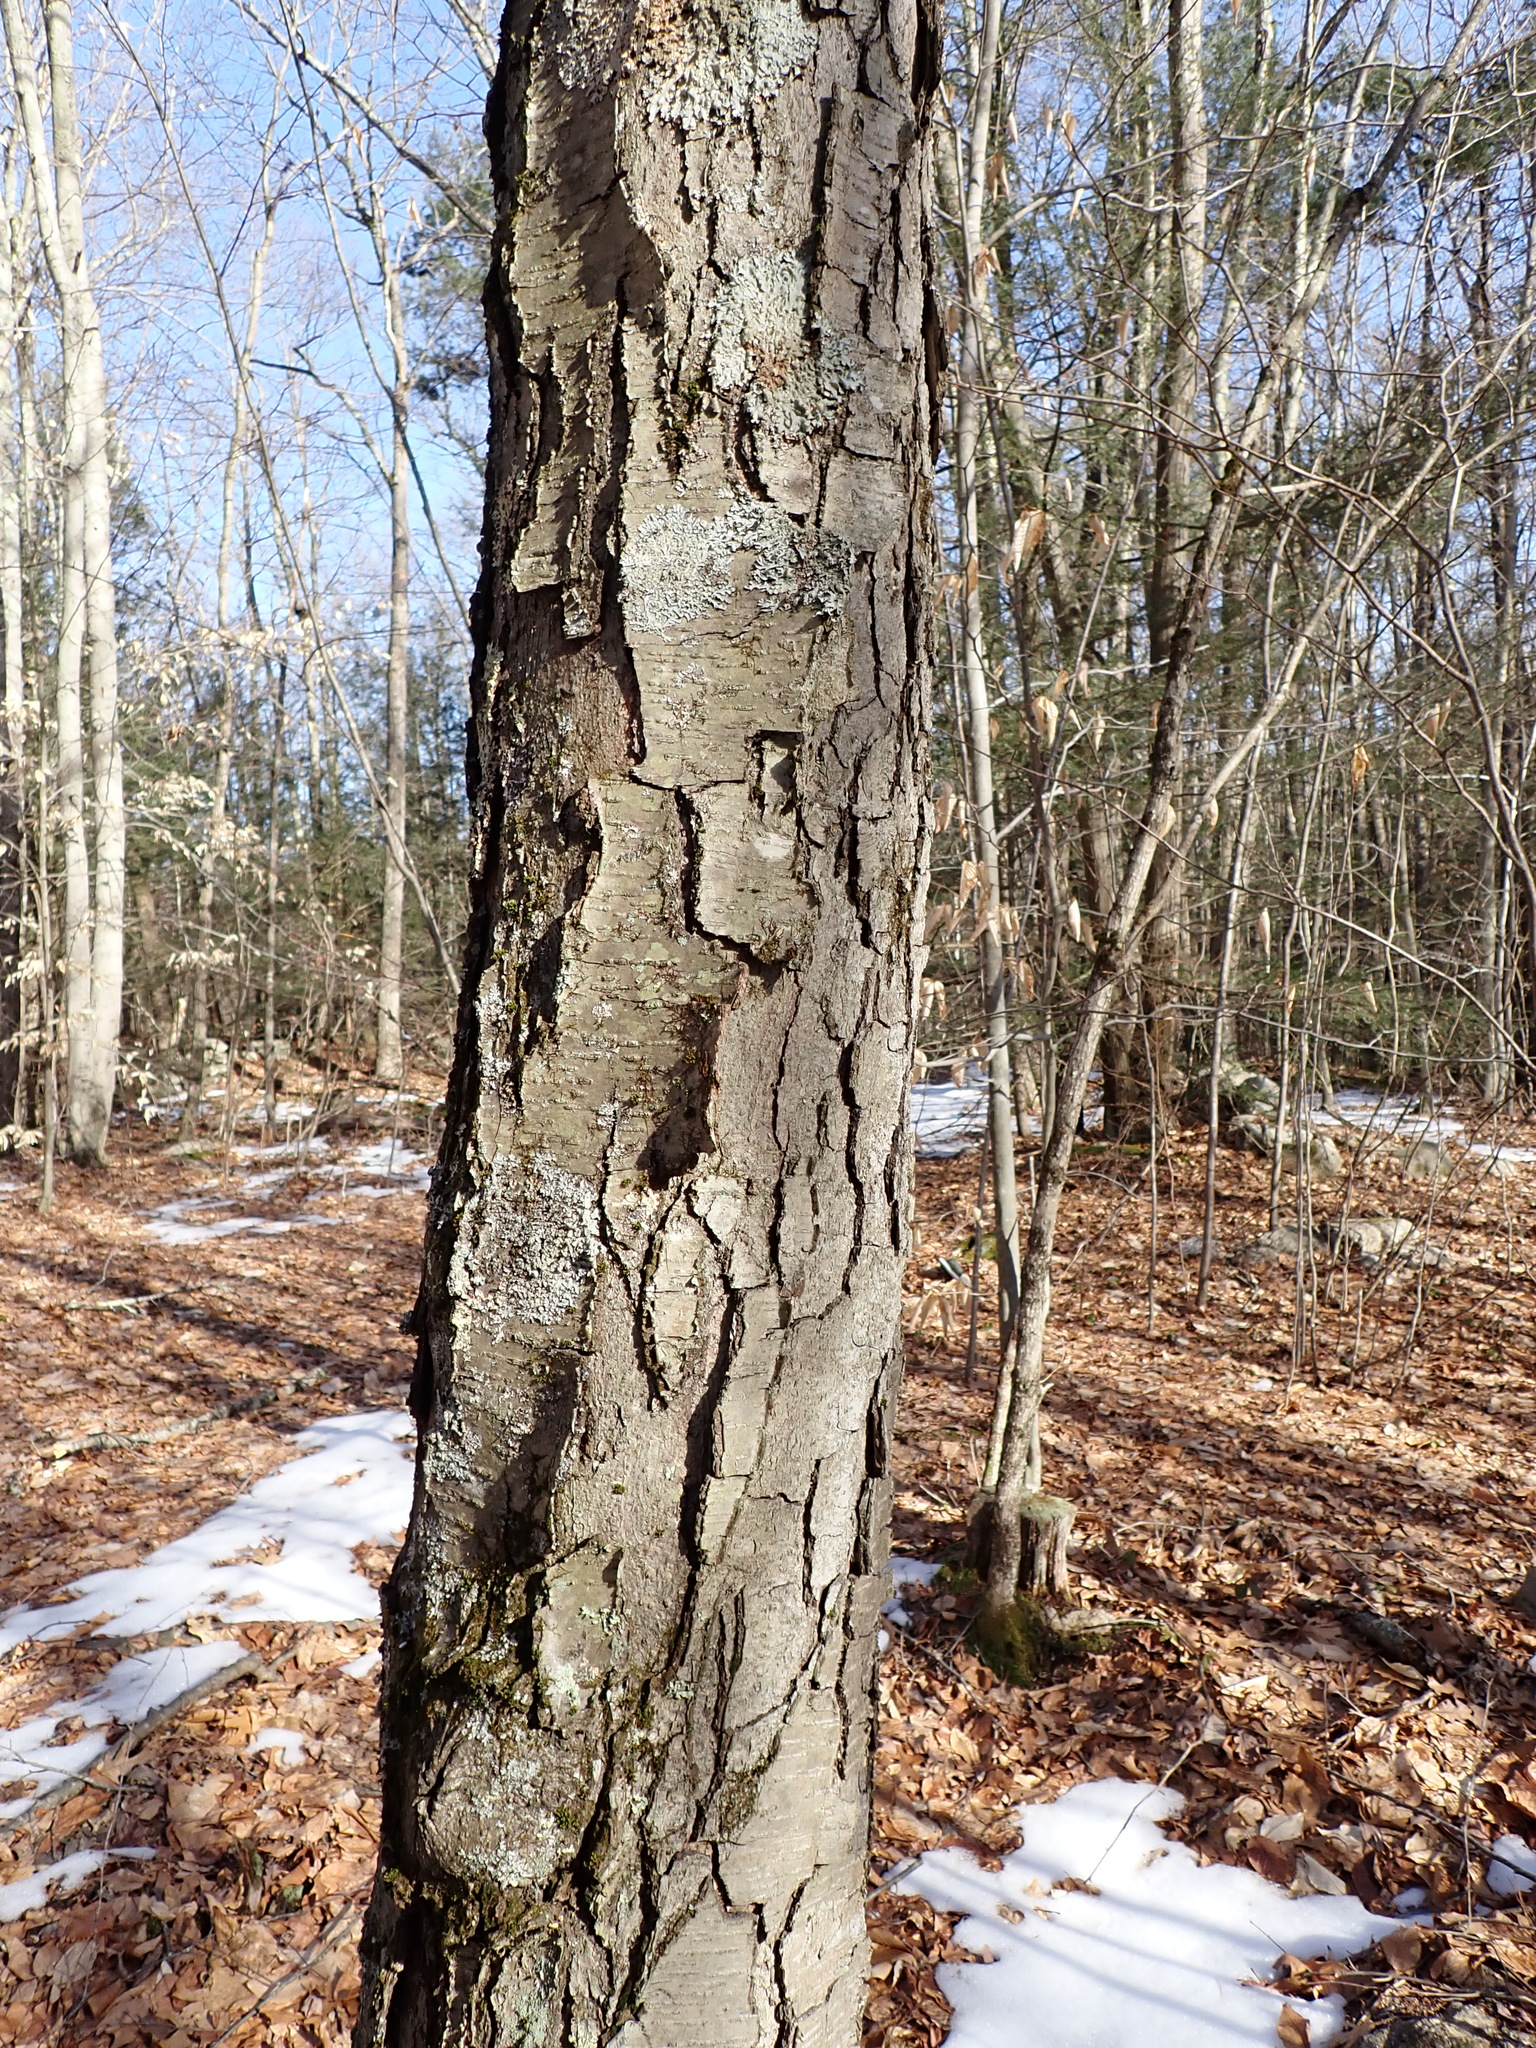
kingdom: Plantae
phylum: Tracheophyta
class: Magnoliopsida
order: Fagales
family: Betulaceae
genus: Betula
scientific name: Betula lenta
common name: Black birch
